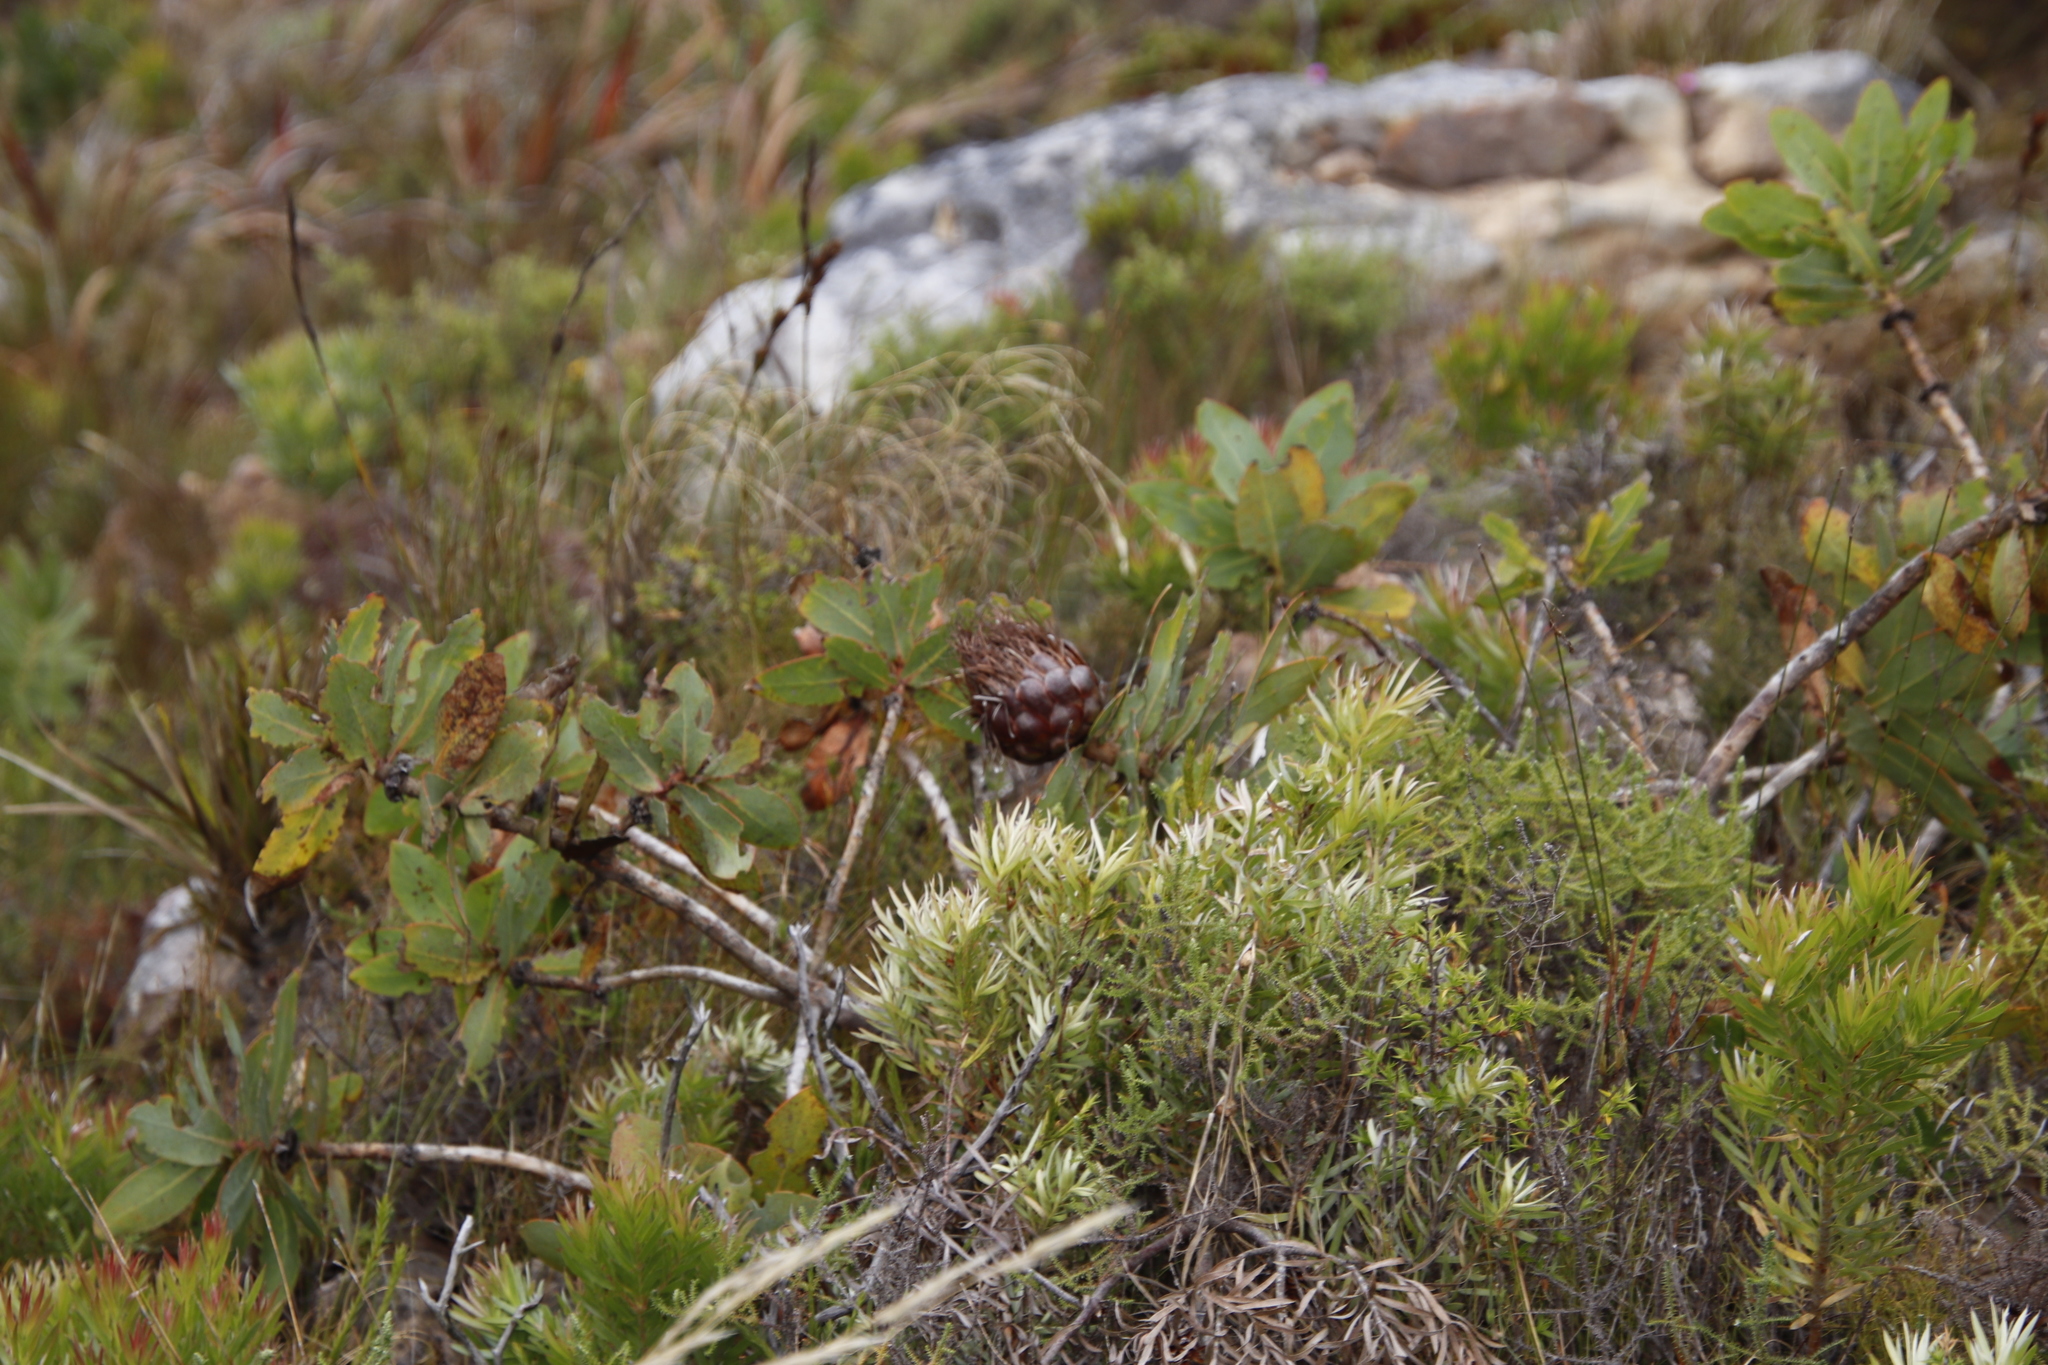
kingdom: Plantae
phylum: Tracheophyta
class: Magnoliopsida
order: Proteales
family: Proteaceae
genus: Protea
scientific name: Protea nitida
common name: Tree protea
